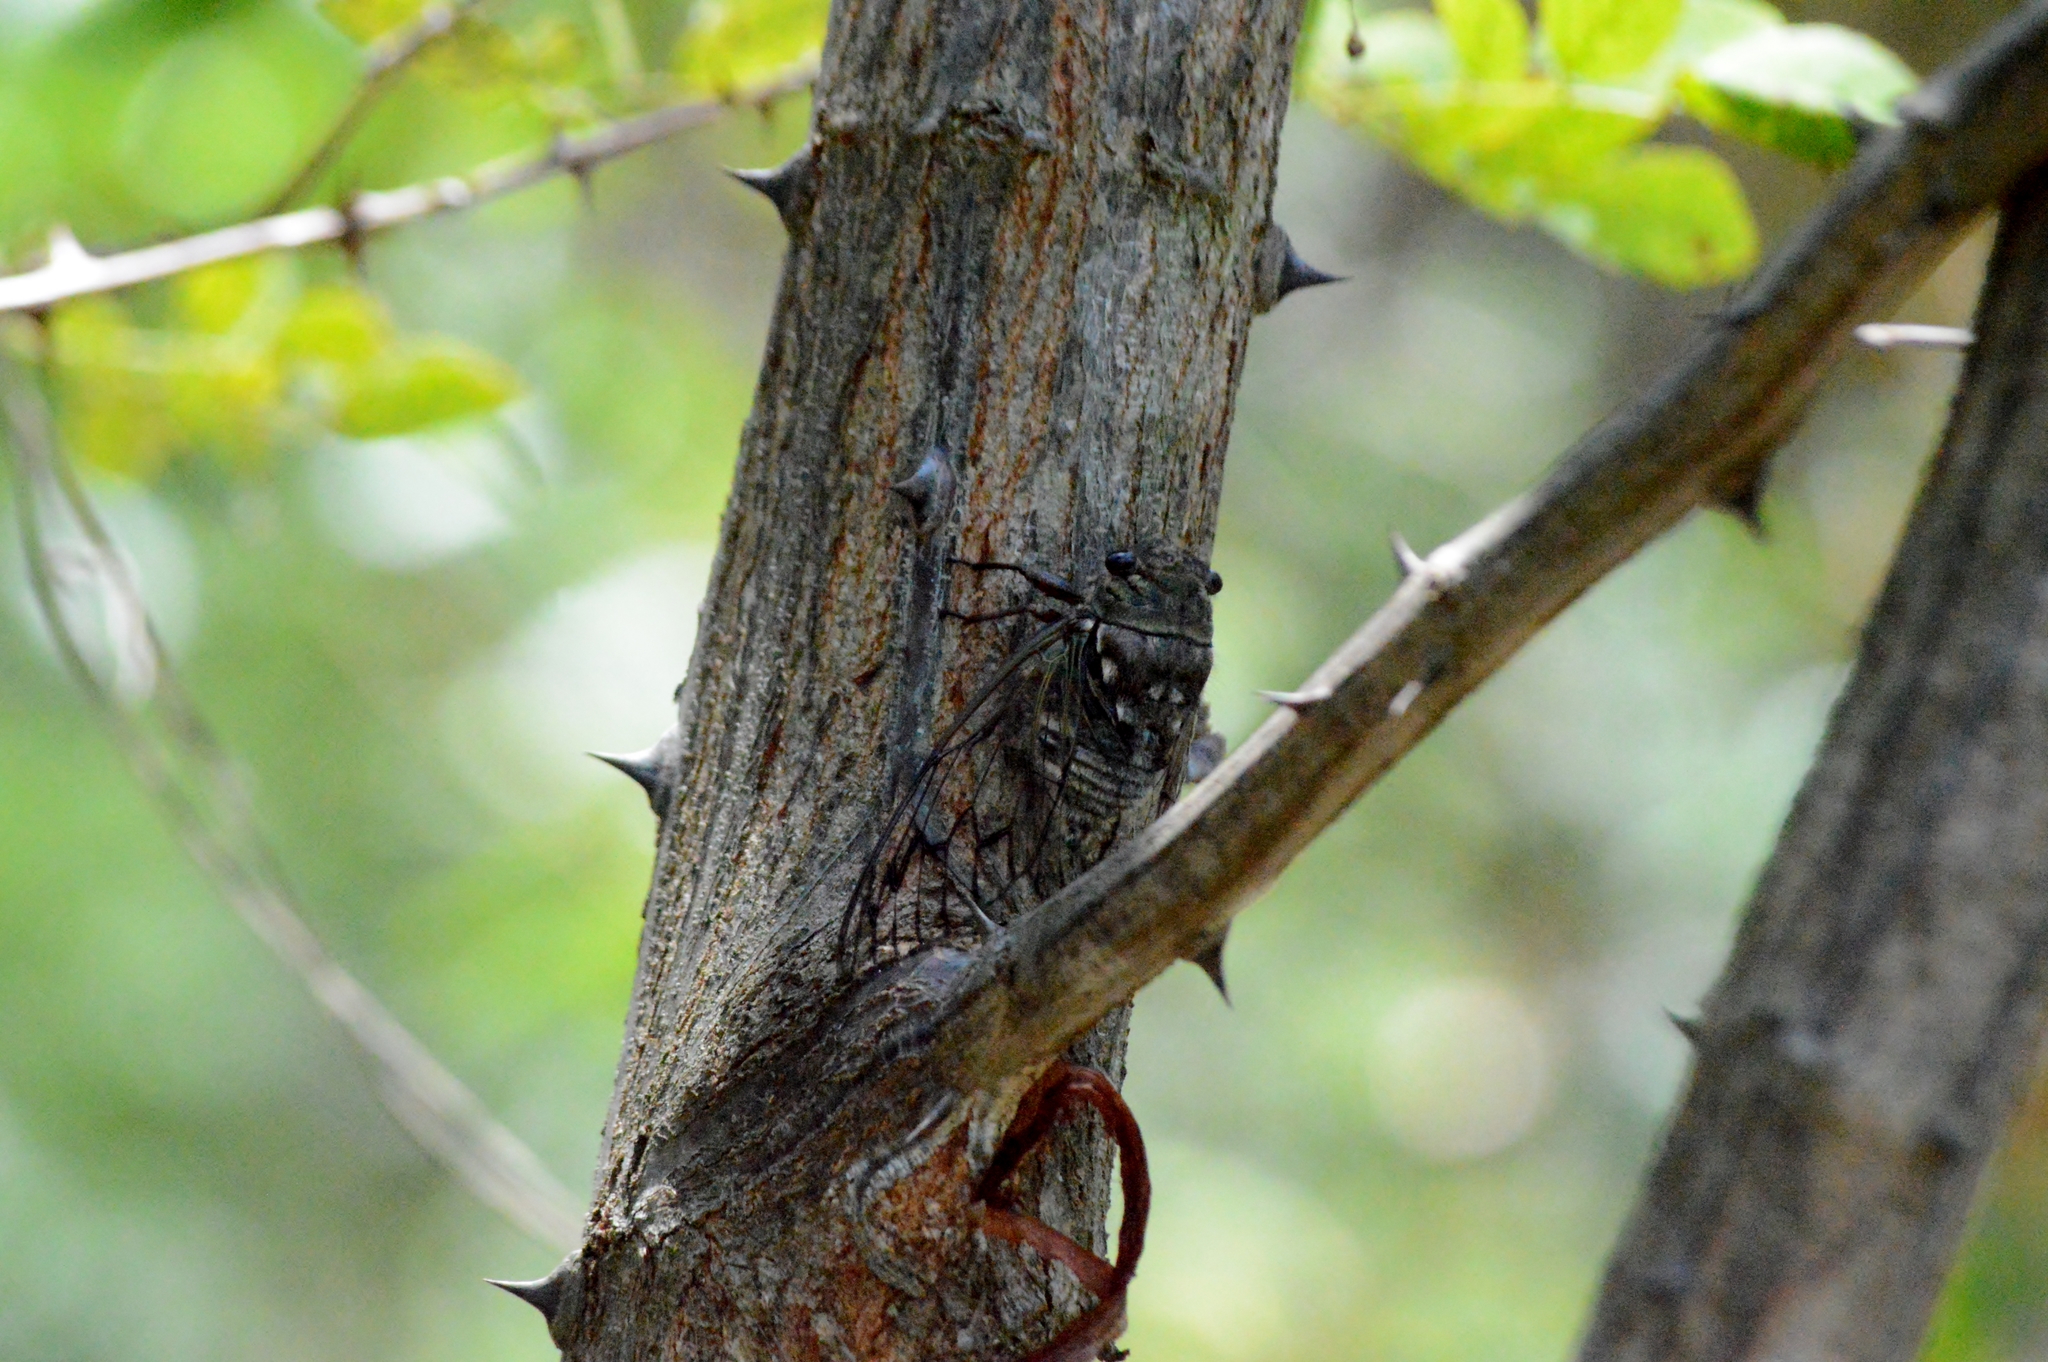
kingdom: Animalia
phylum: Arthropoda
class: Insecta
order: Hemiptera
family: Cicadidae
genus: Fidicina
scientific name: Fidicina toulgoeti
